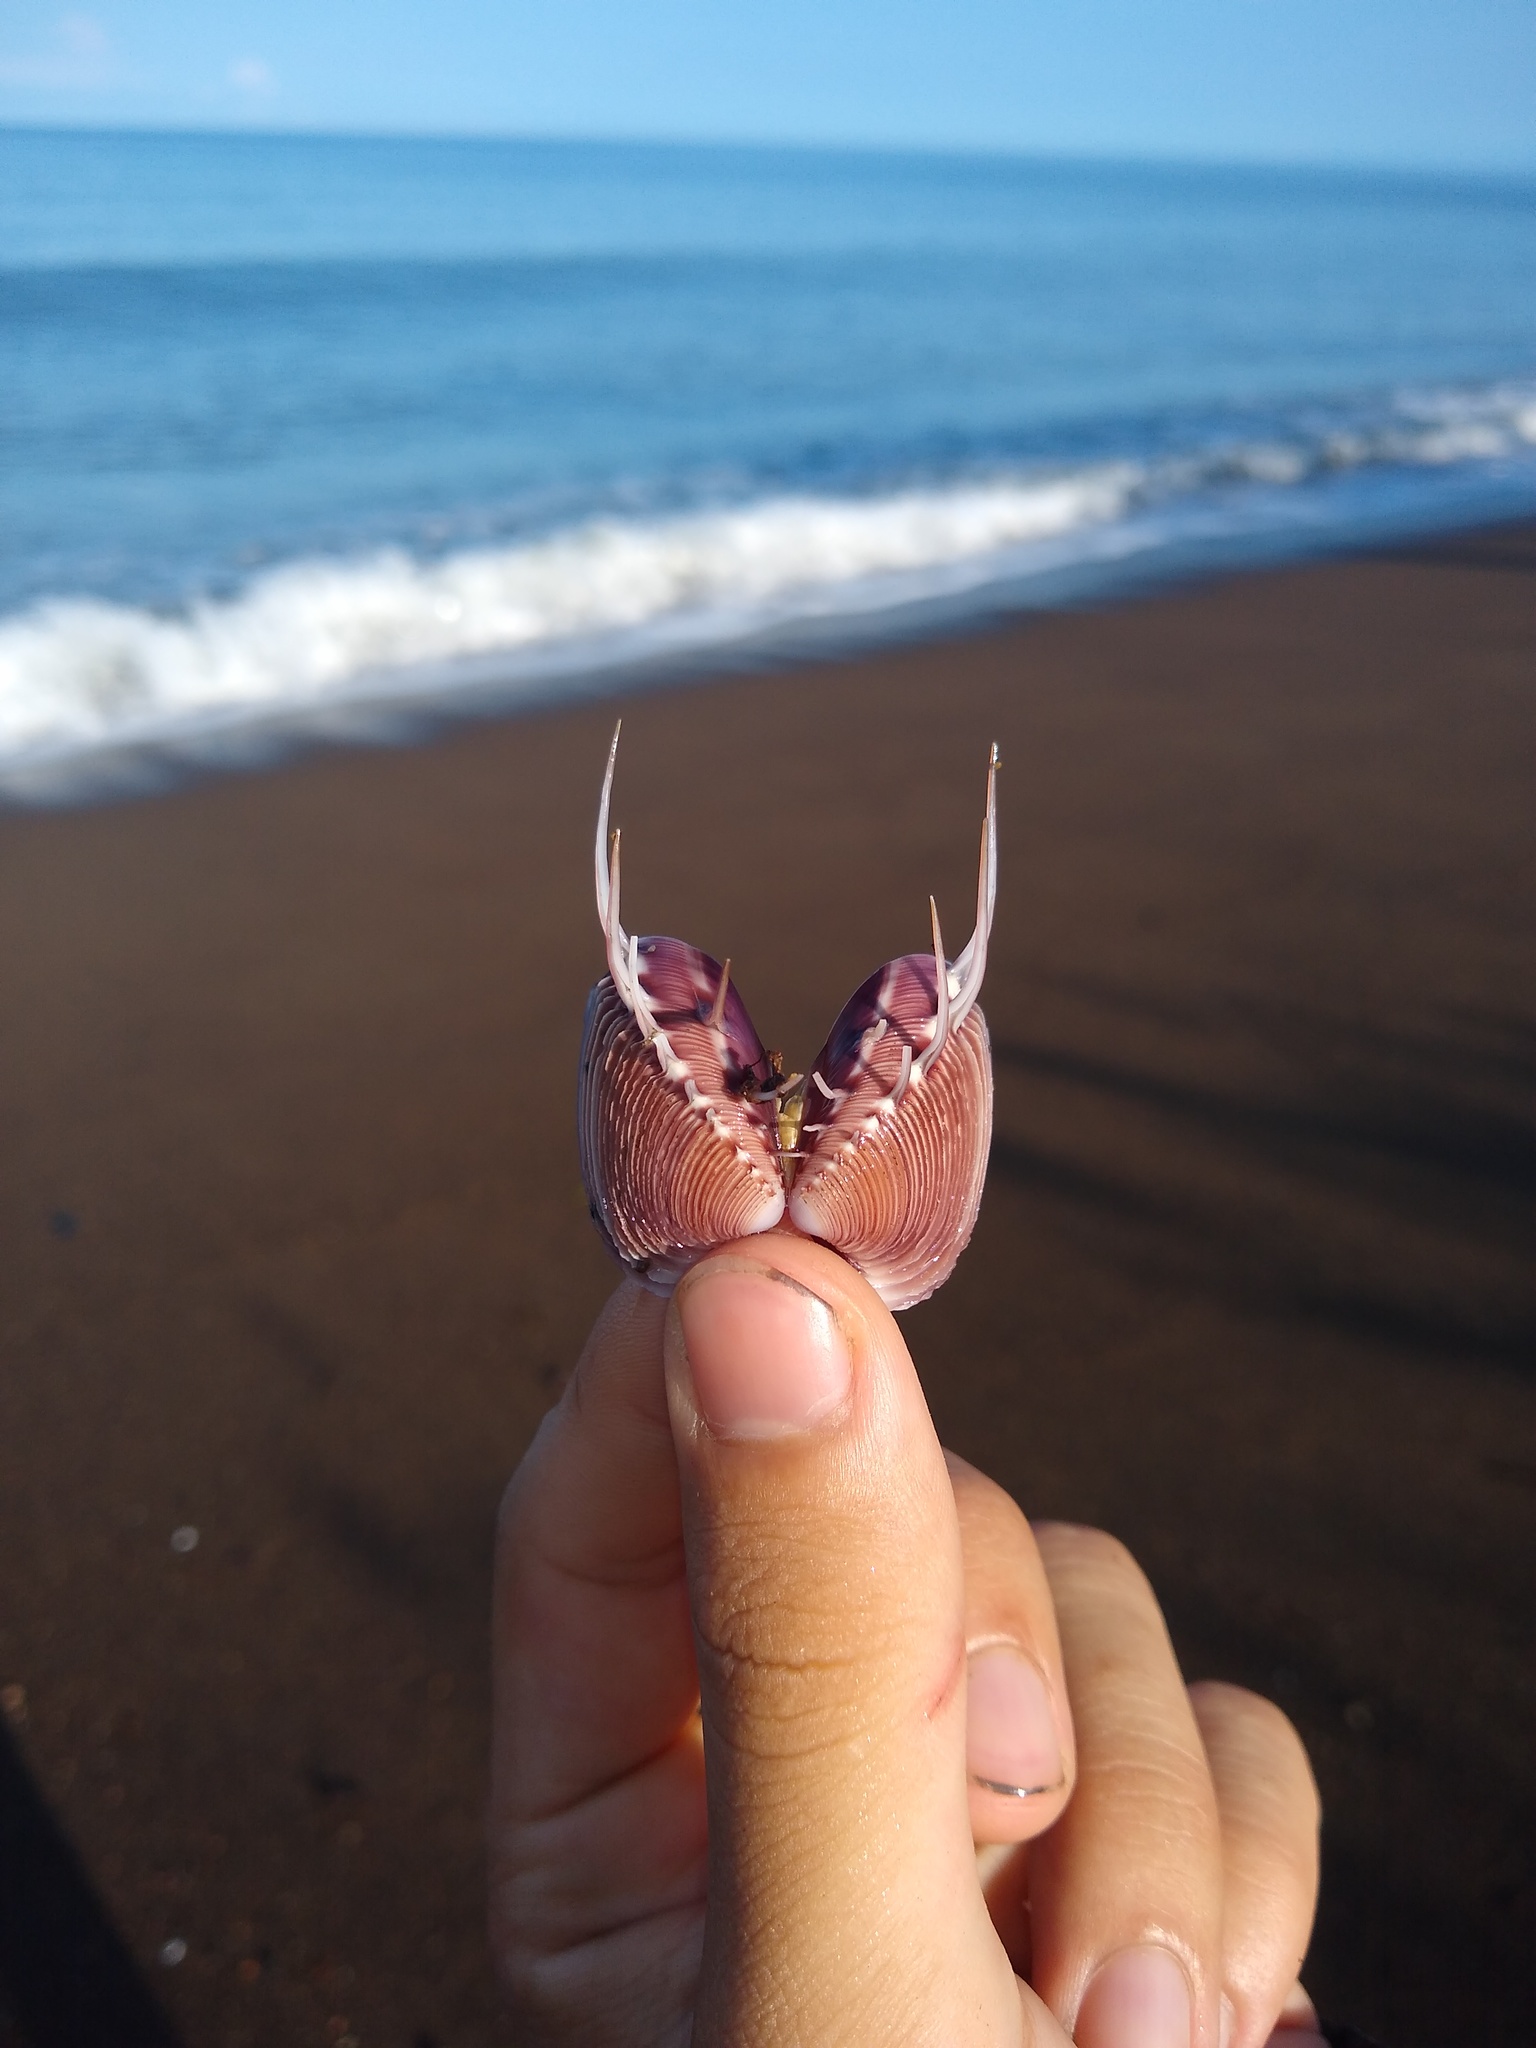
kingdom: Animalia
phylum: Mollusca
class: Bivalvia
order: Venerida
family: Veneridae
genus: Hysteroconcha
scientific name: Hysteroconcha lupanaria
